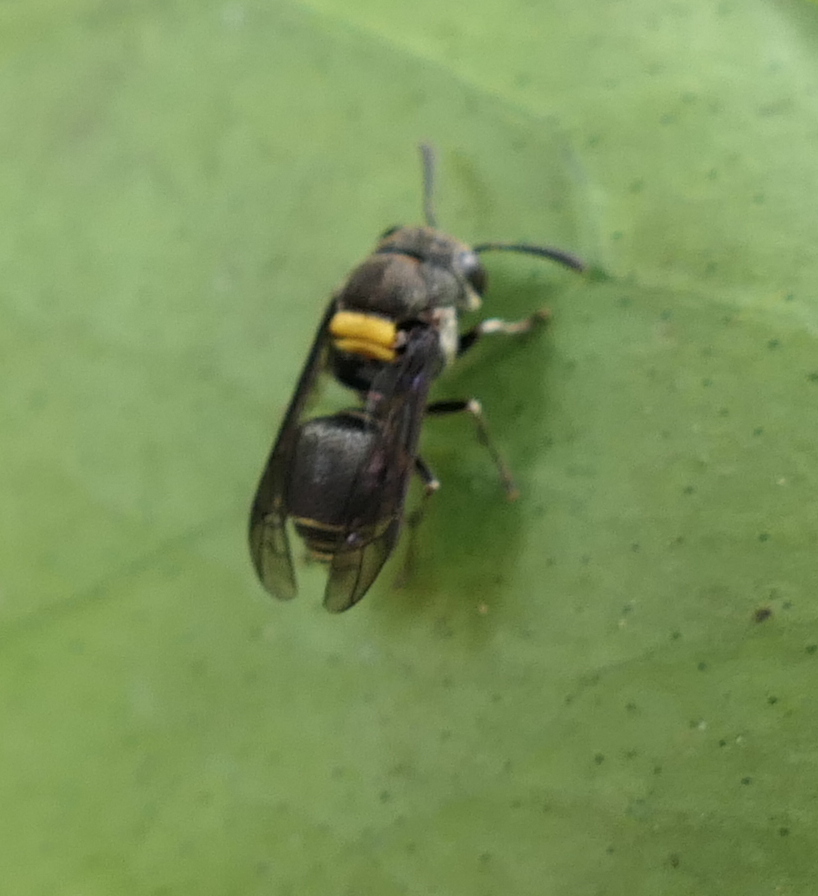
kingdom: Animalia
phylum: Arthropoda
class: Insecta
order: Hymenoptera
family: Vespidae
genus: Brachygastra
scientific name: Brachygastra scutellaris
